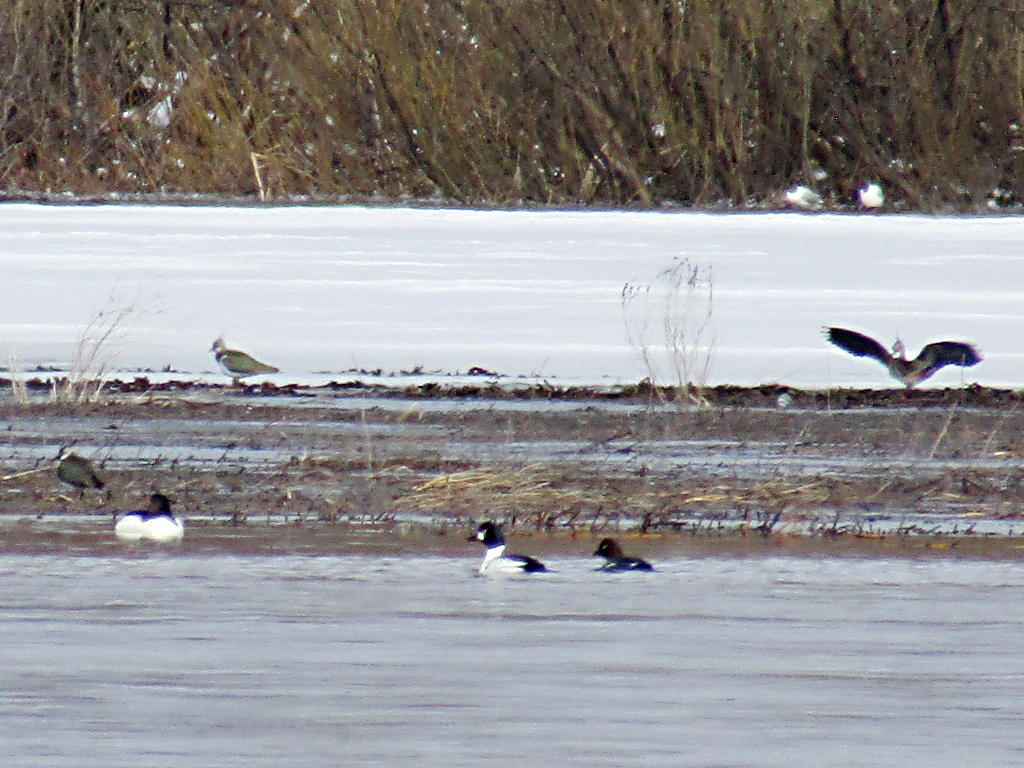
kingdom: Animalia
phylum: Chordata
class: Aves
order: Charadriiformes
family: Charadriidae
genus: Vanellus
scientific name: Vanellus vanellus
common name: Northern lapwing
